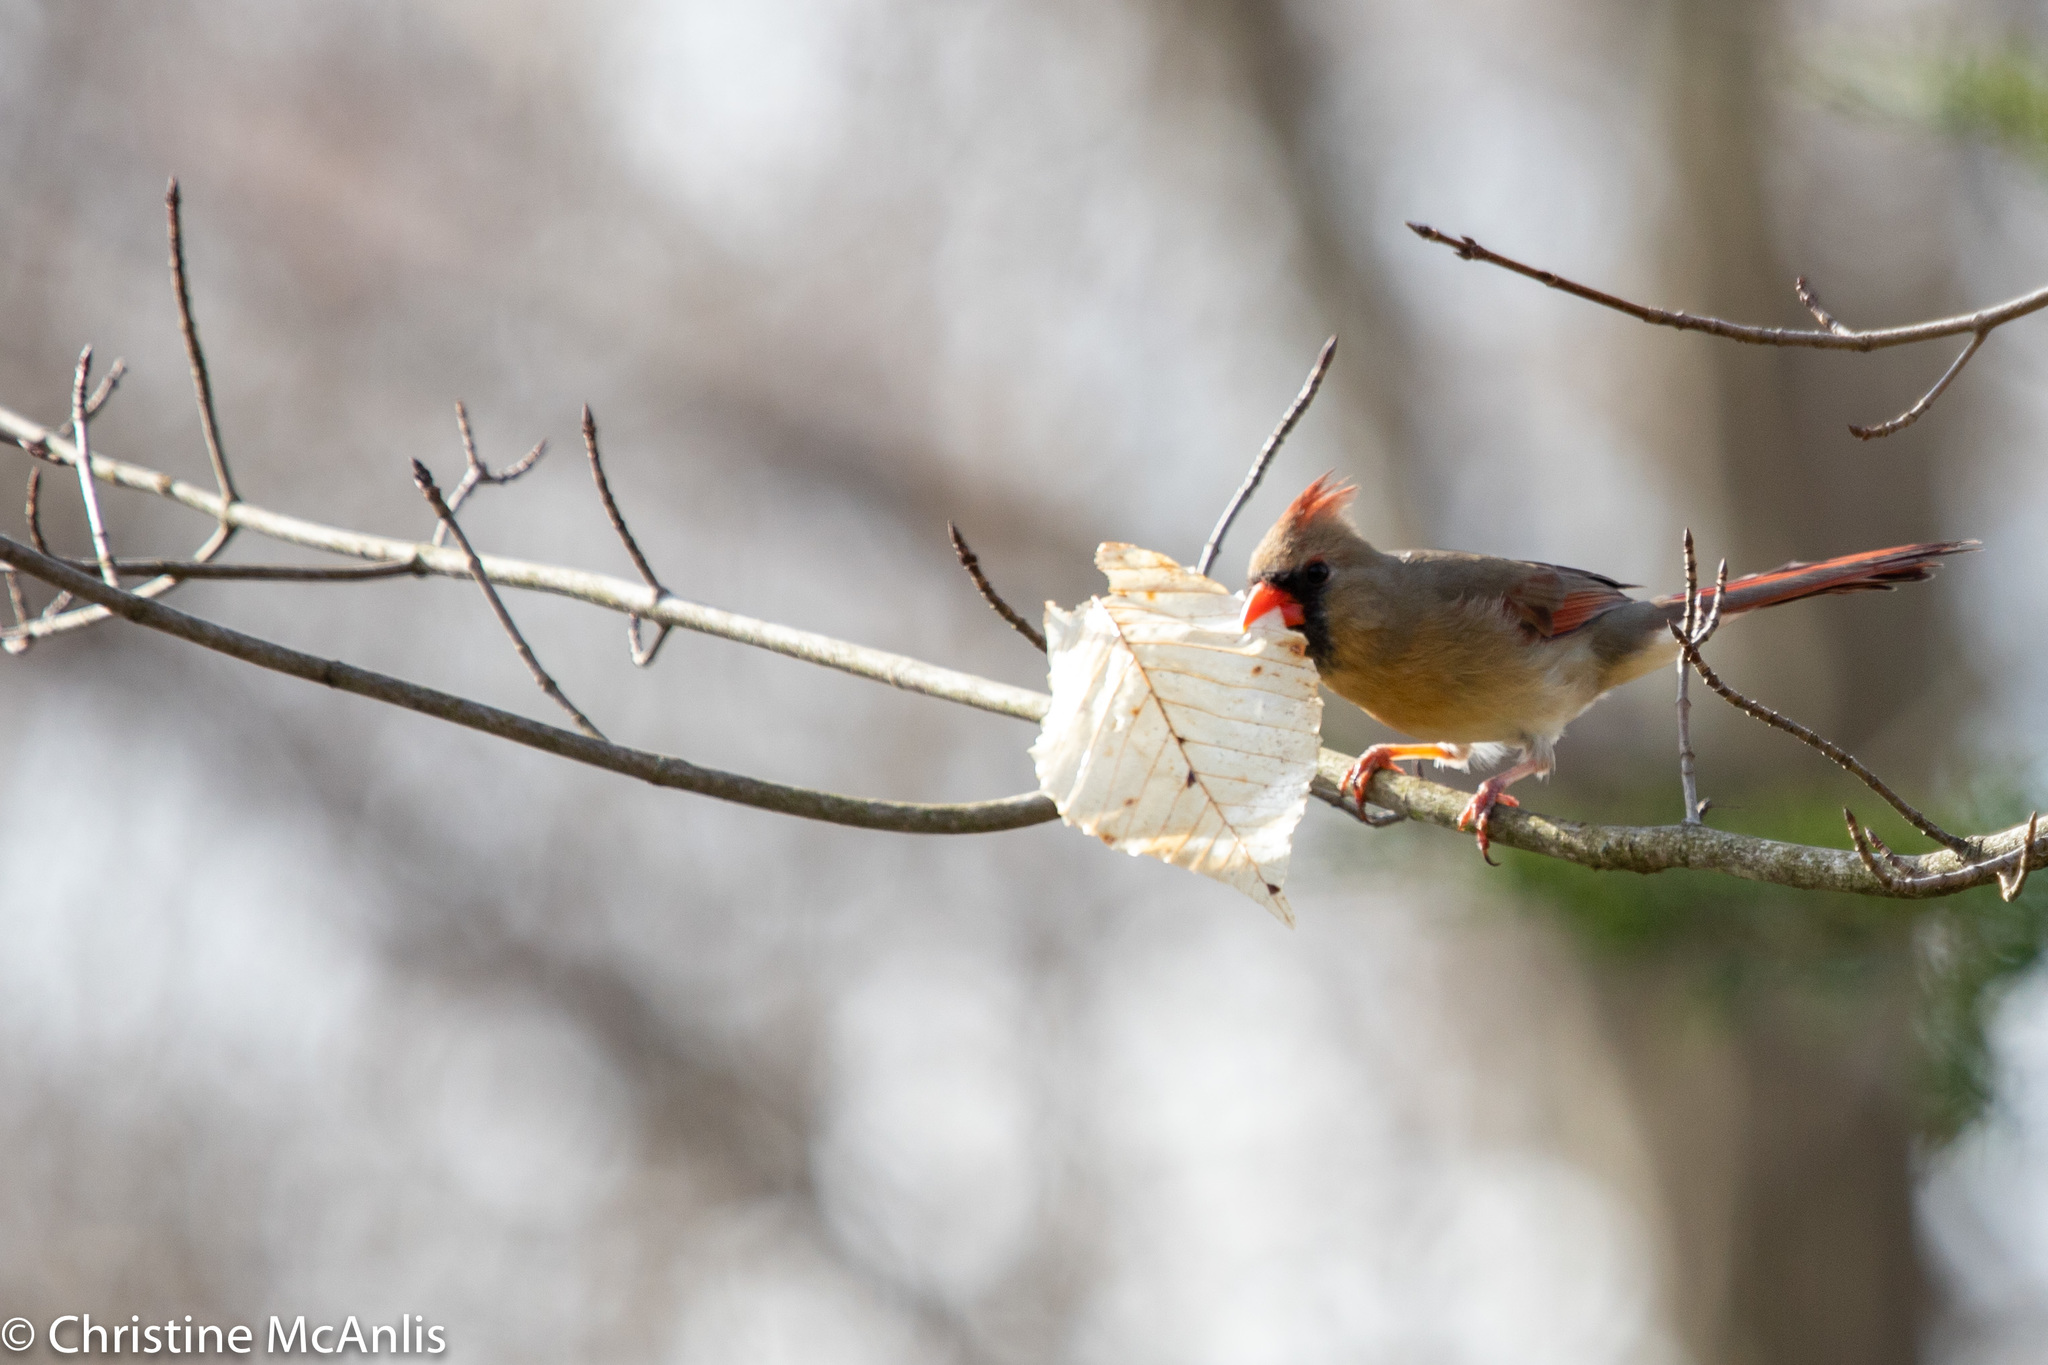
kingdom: Animalia
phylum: Chordata
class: Aves
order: Passeriformes
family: Cardinalidae
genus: Cardinalis
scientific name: Cardinalis cardinalis
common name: Northern cardinal
